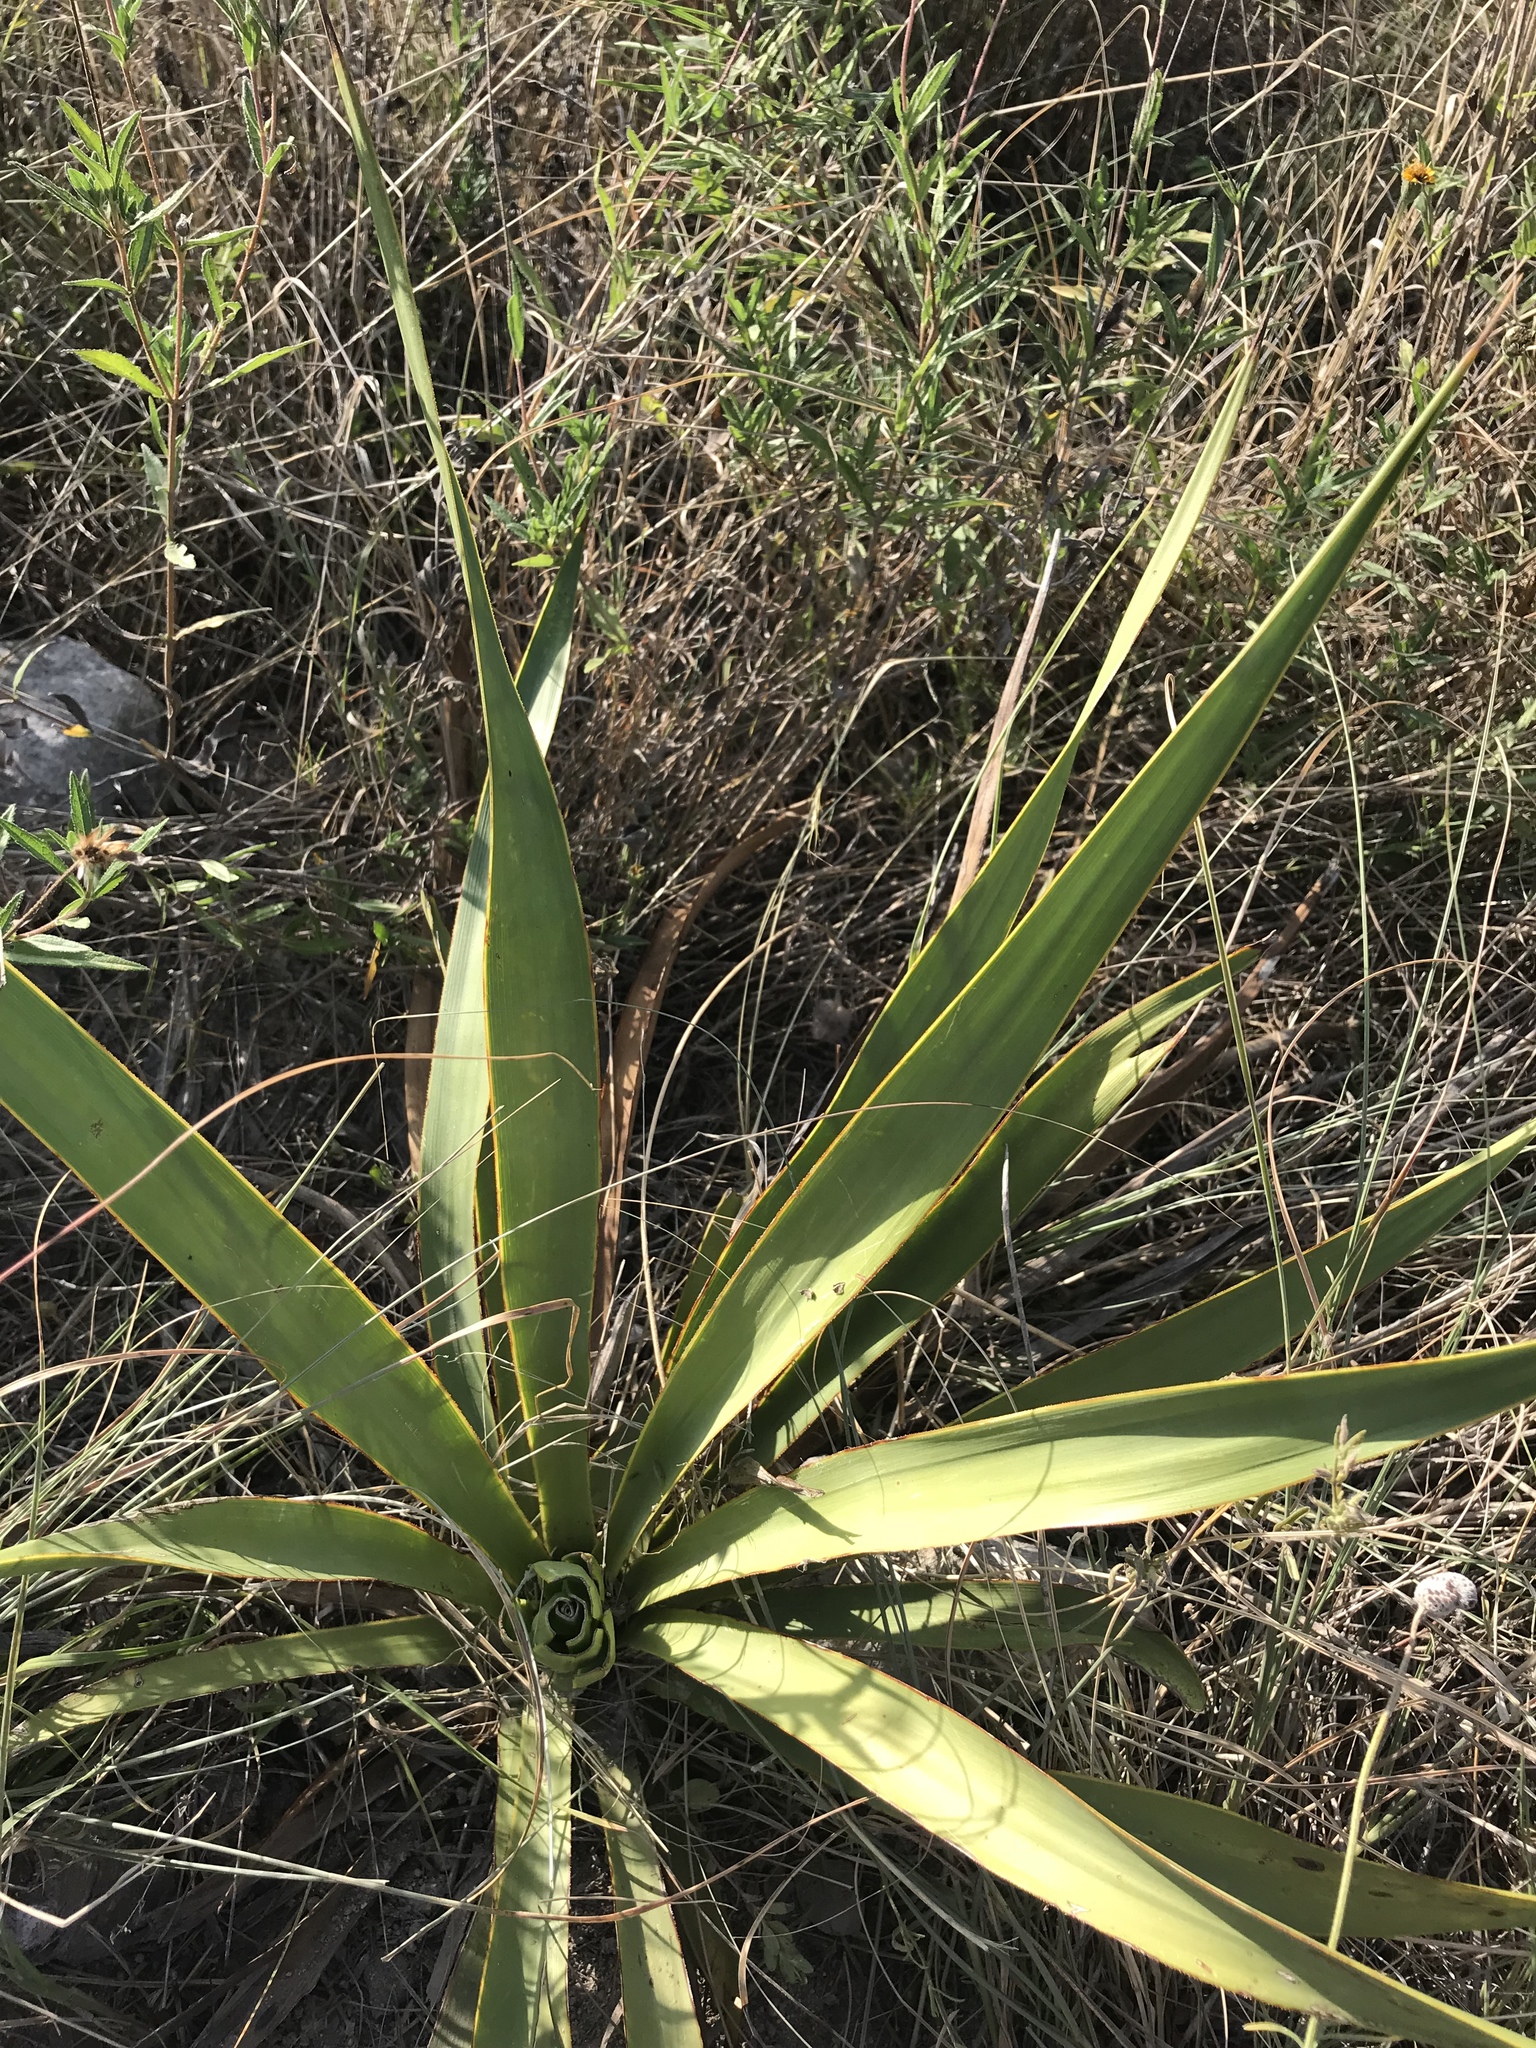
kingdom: Plantae
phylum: Tracheophyta
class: Liliopsida
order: Asparagales
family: Asparagaceae
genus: Yucca
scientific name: Yucca rupicola
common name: Twisted-leaf spanish-dagger
